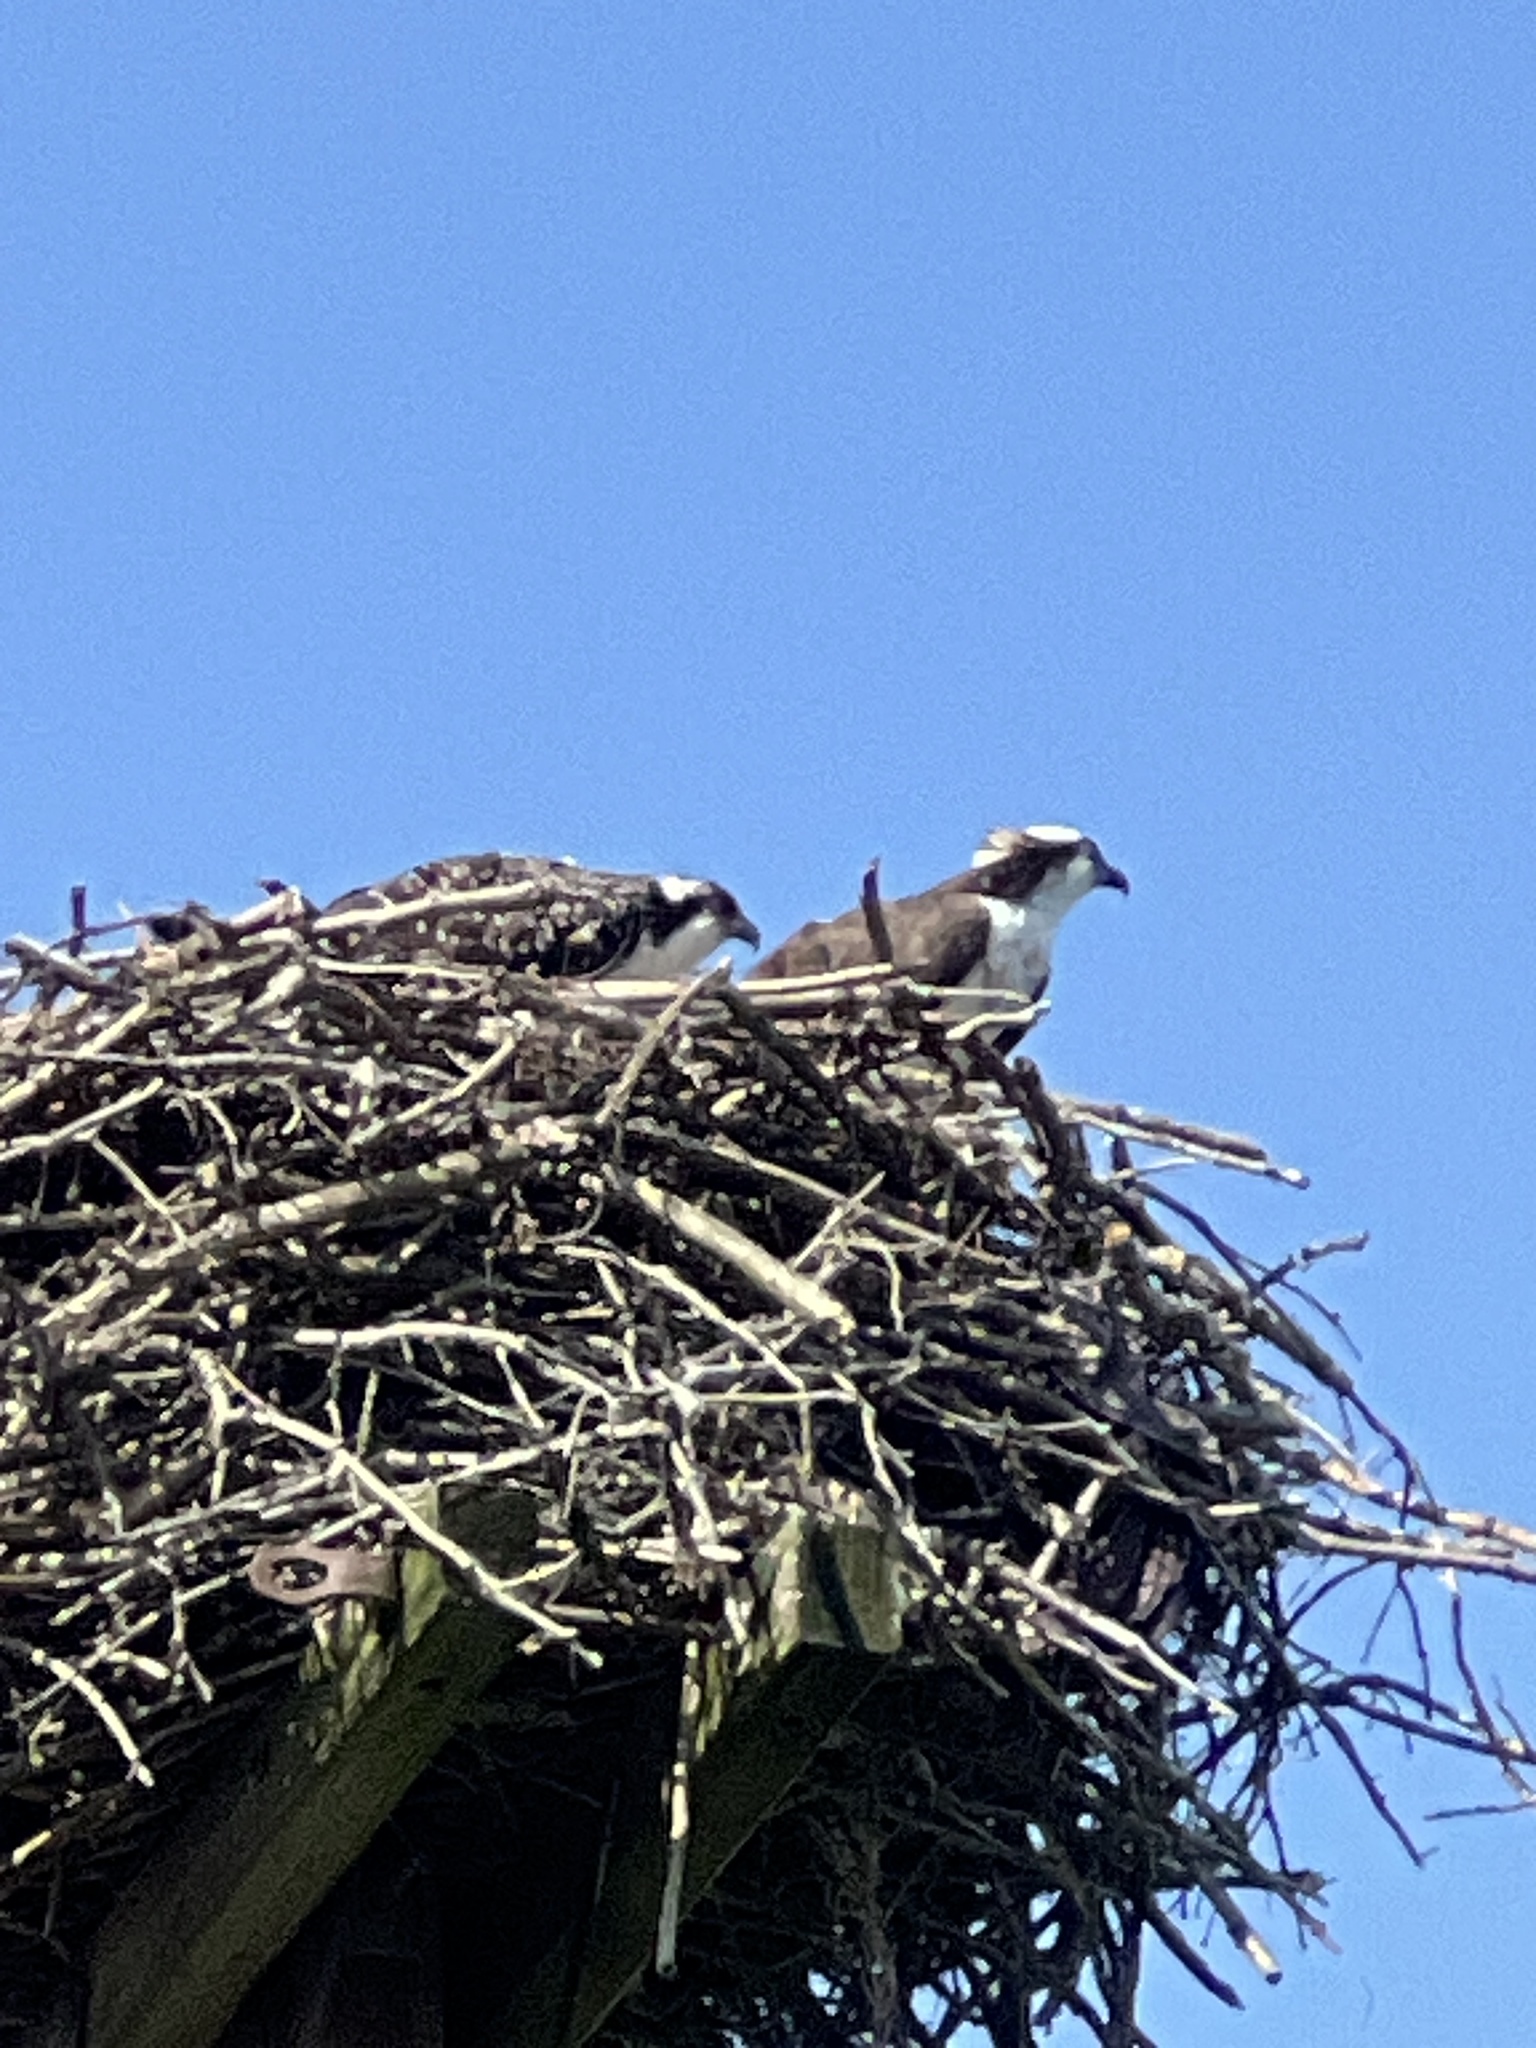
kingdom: Animalia
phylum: Chordata
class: Aves
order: Accipitriformes
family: Pandionidae
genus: Pandion
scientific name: Pandion haliaetus
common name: Osprey
